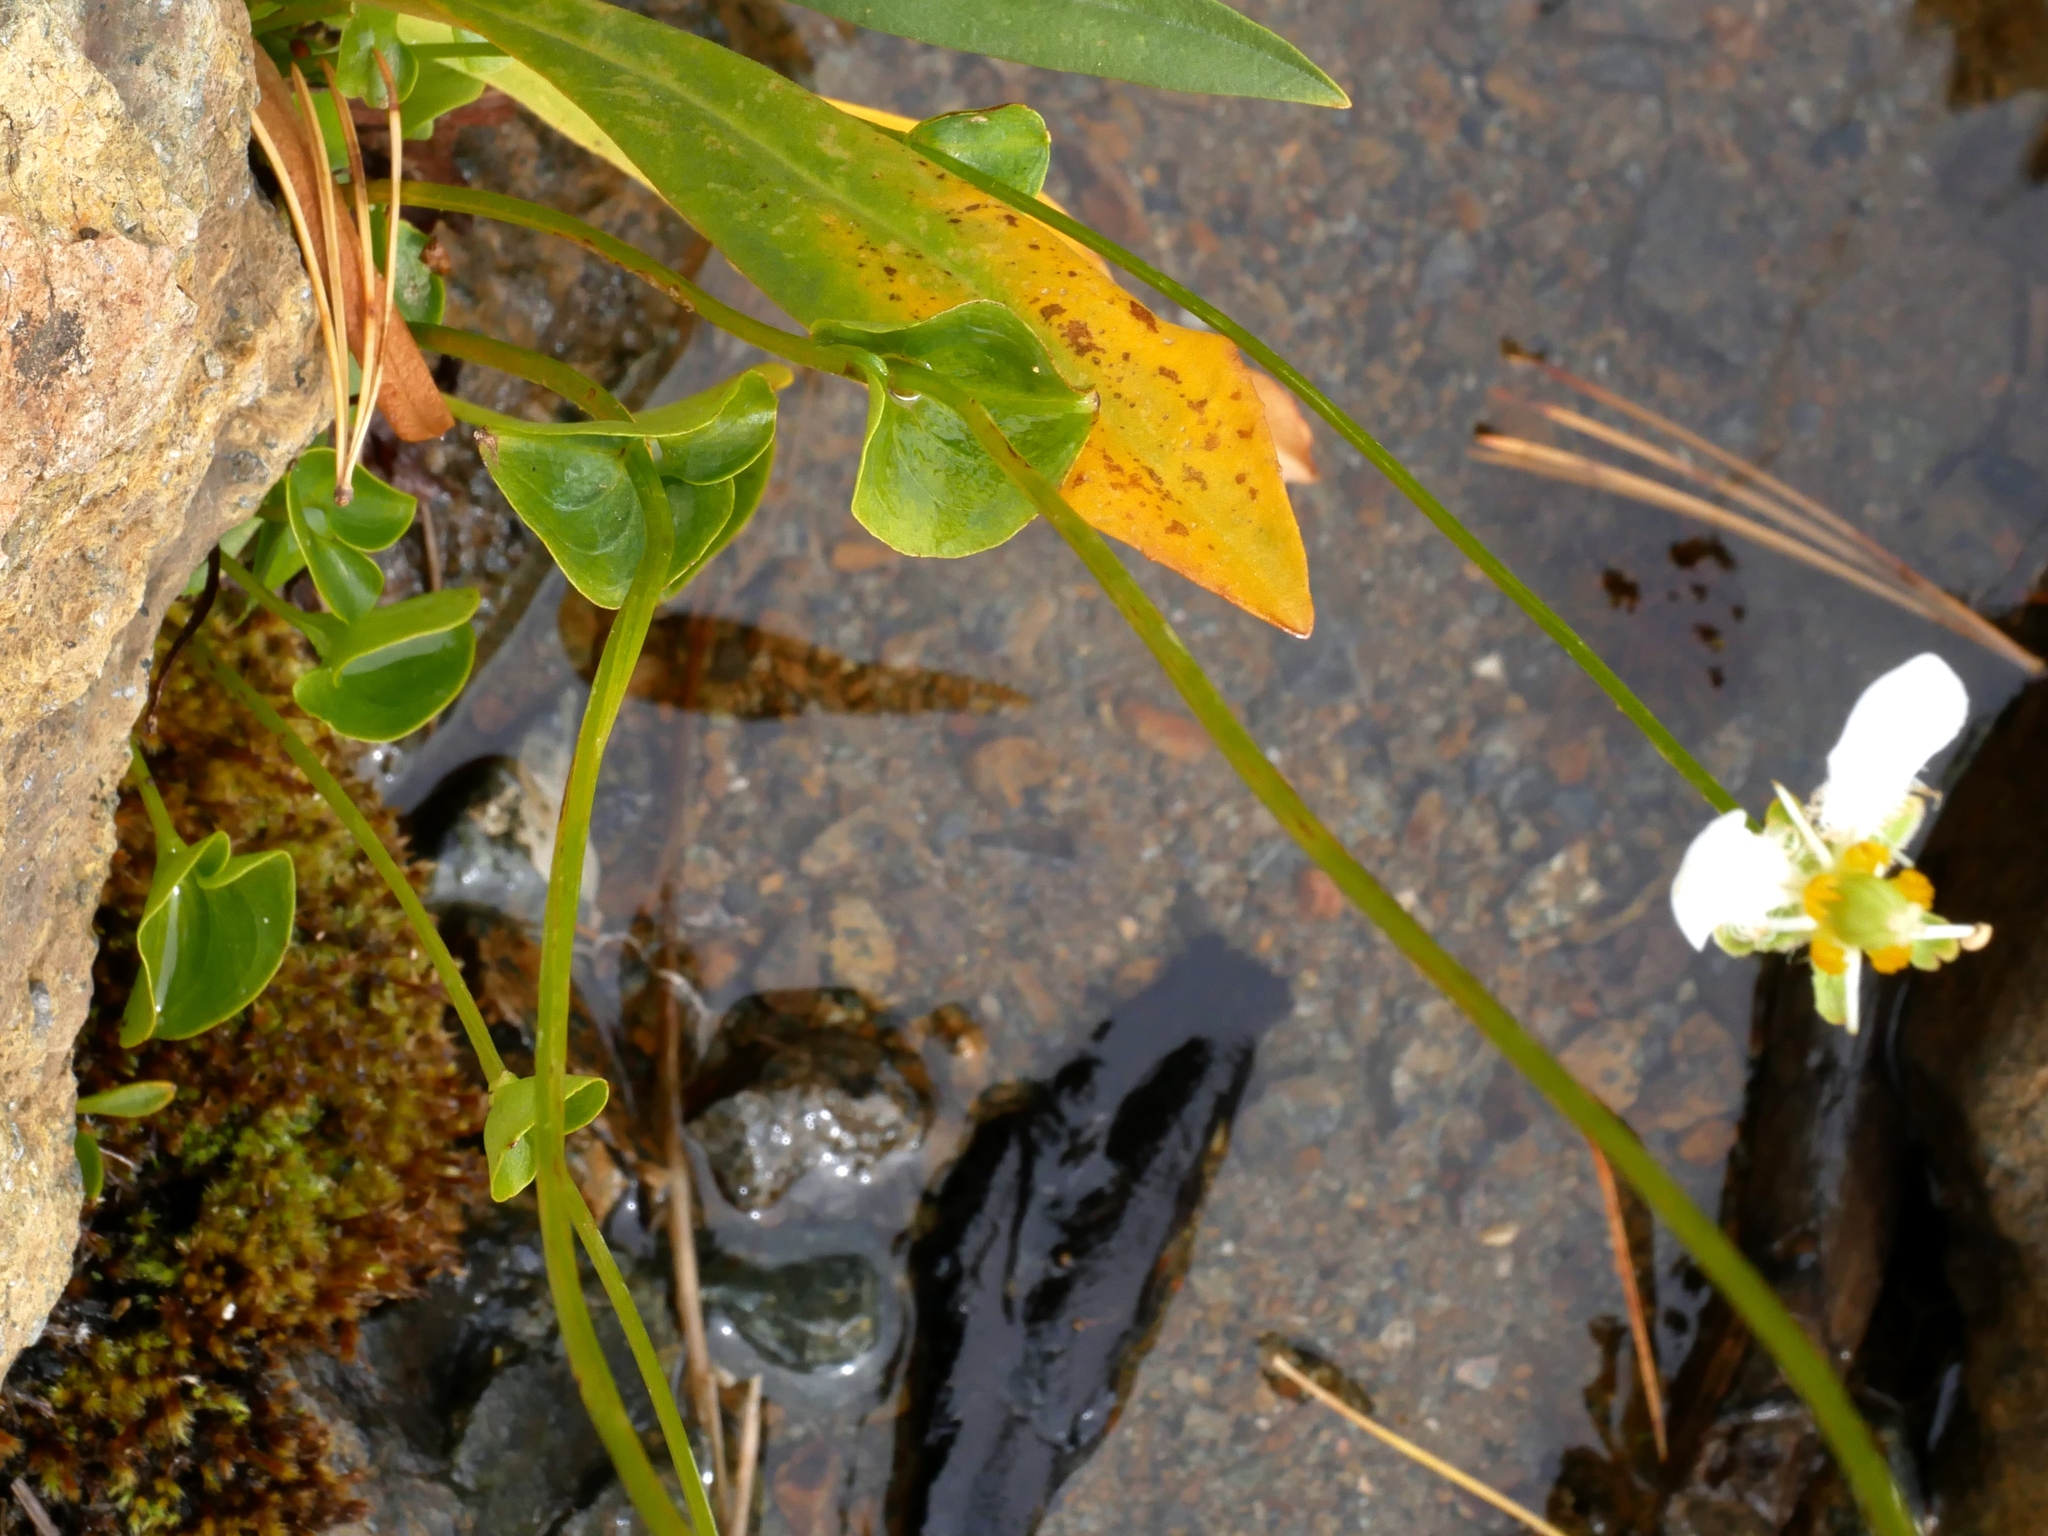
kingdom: Plantae
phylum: Tracheophyta
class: Magnoliopsida
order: Celastrales
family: Parnassiaceae
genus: Parnassia
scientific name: Parnassia fimbriata
